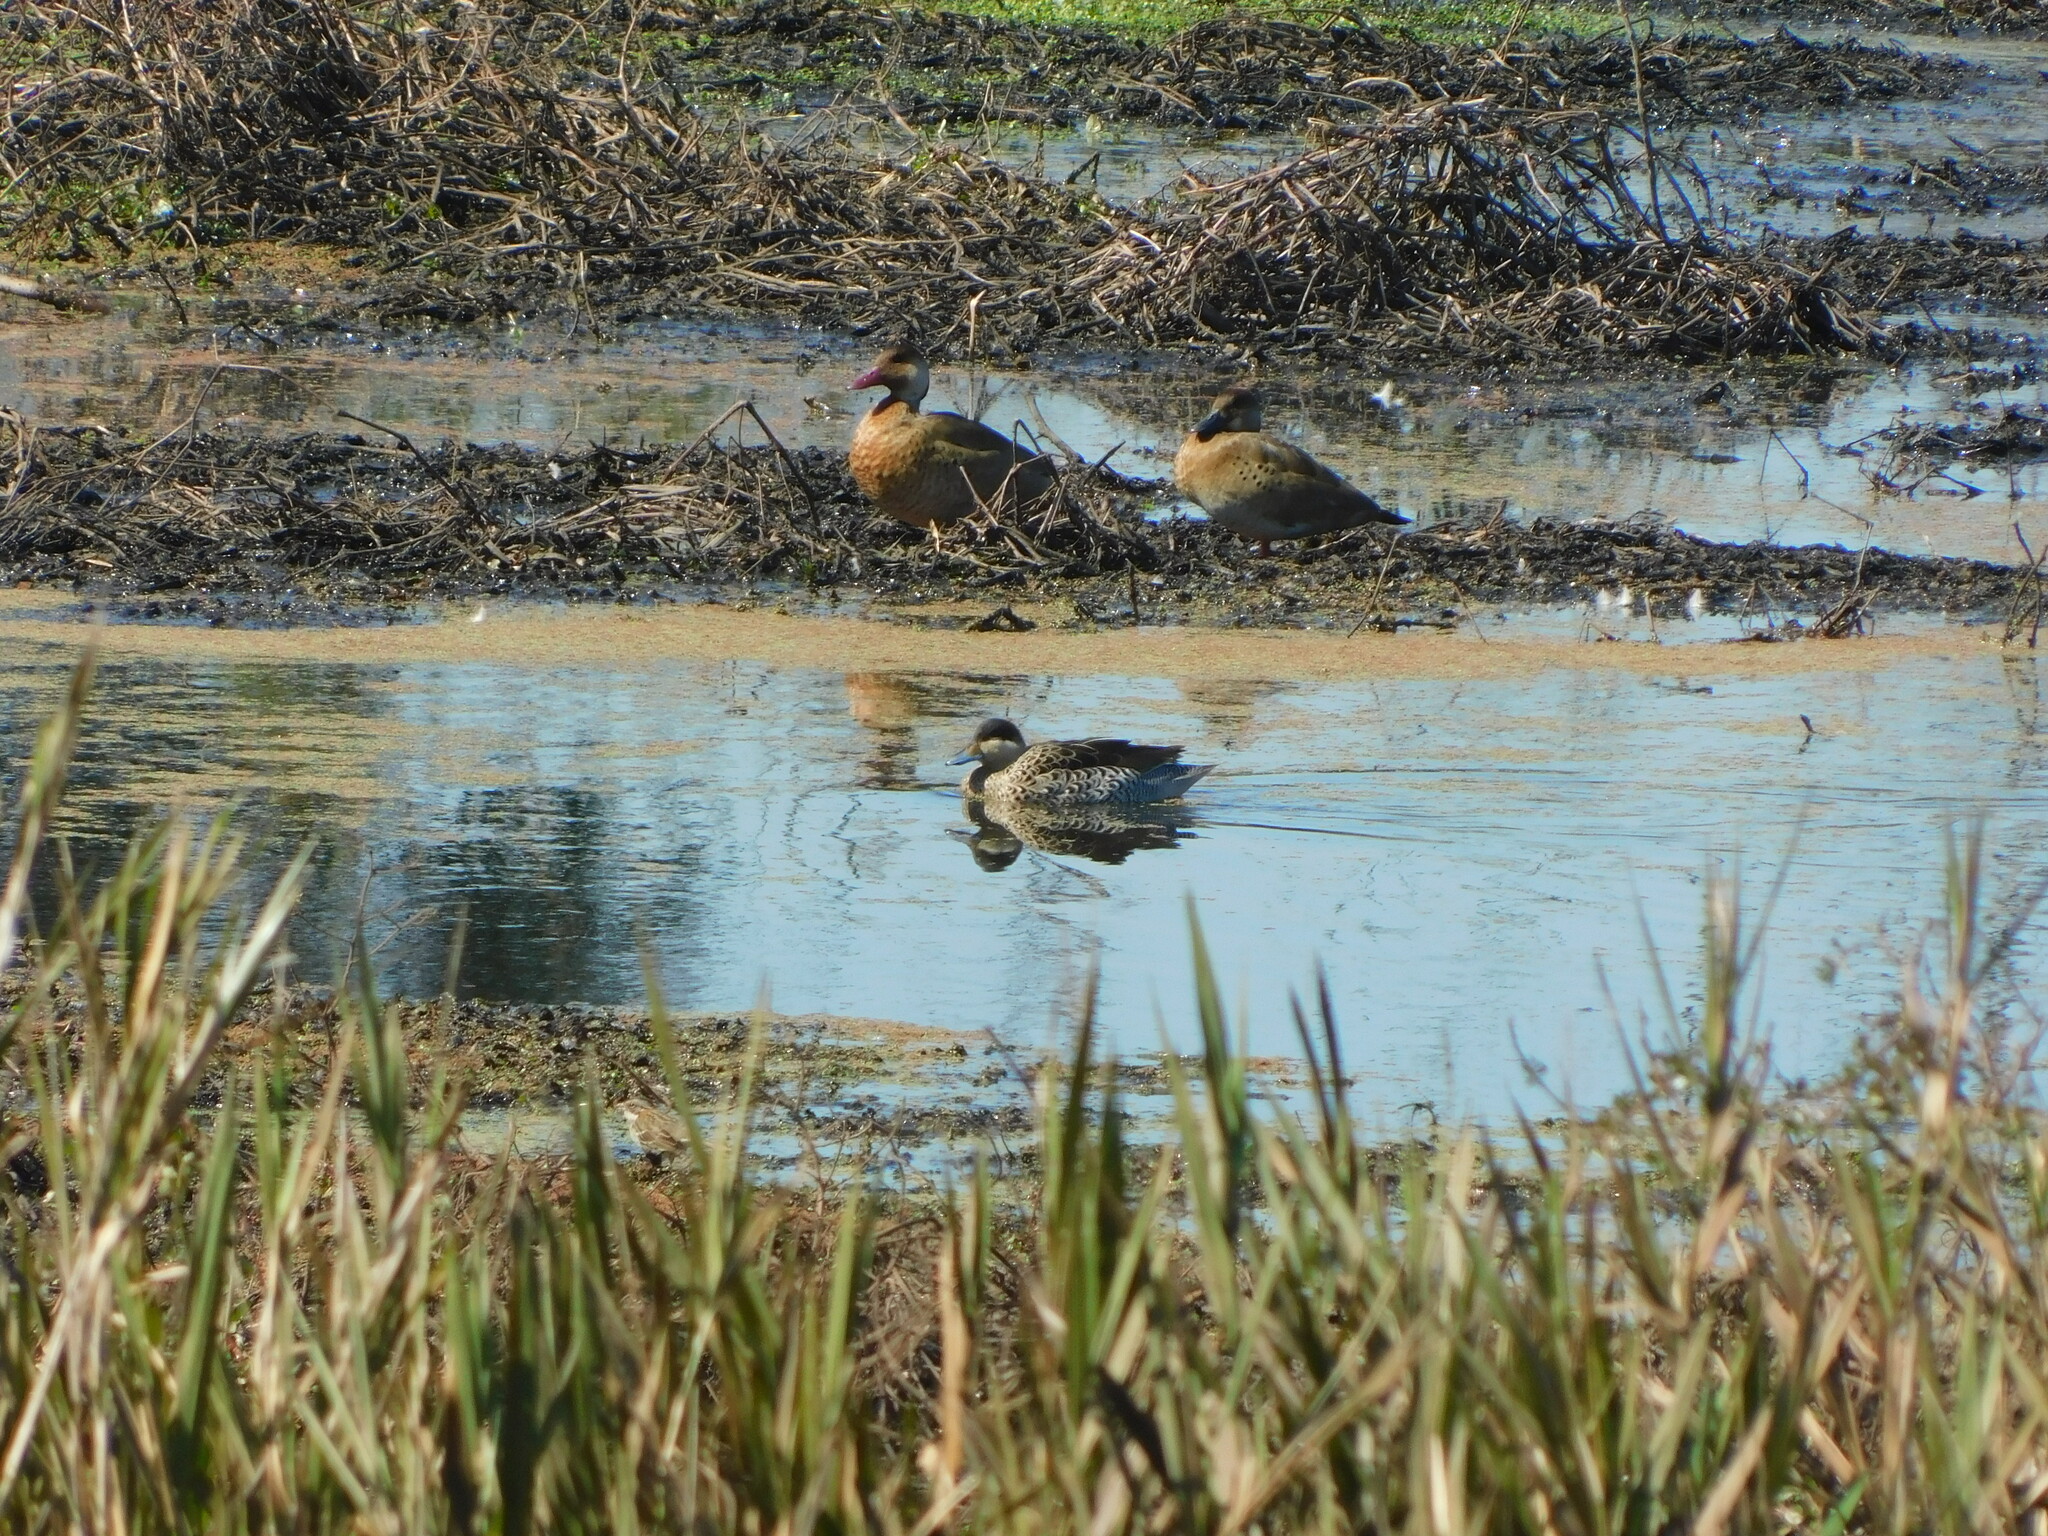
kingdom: Animalia
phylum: Chordata
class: Aves
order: Anseriformes
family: Anatidae
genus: Spatula
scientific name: Spatula versicolor
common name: Silver teal
